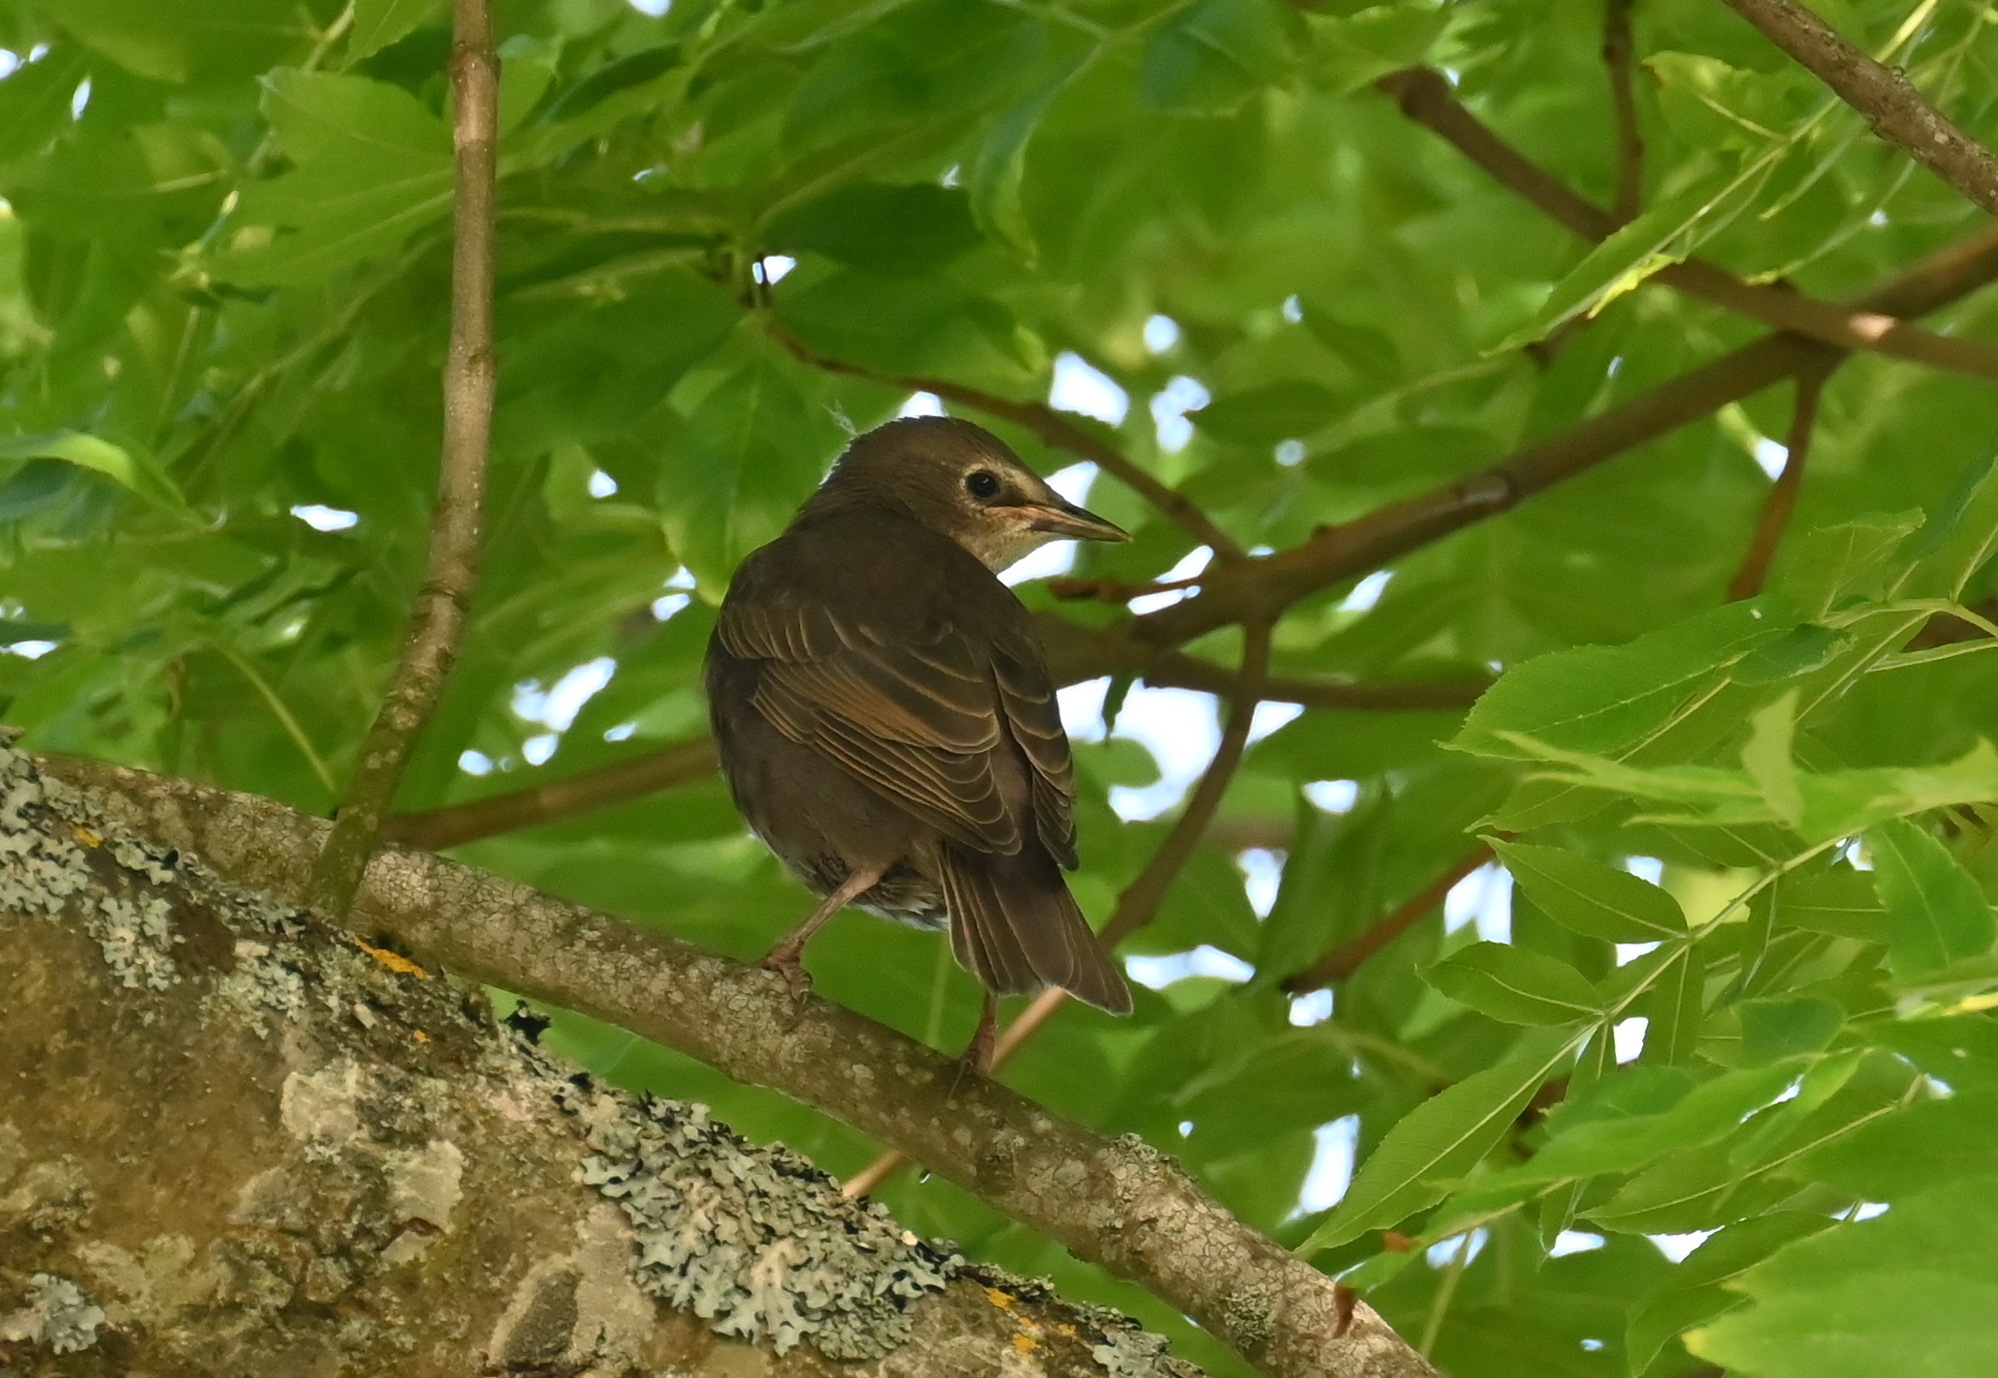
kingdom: Animalia
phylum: Chordata
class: Aves
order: Passeriformes
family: Sturnidae
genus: Sturnus
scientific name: Sturnus vulgaris
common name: Common starling
